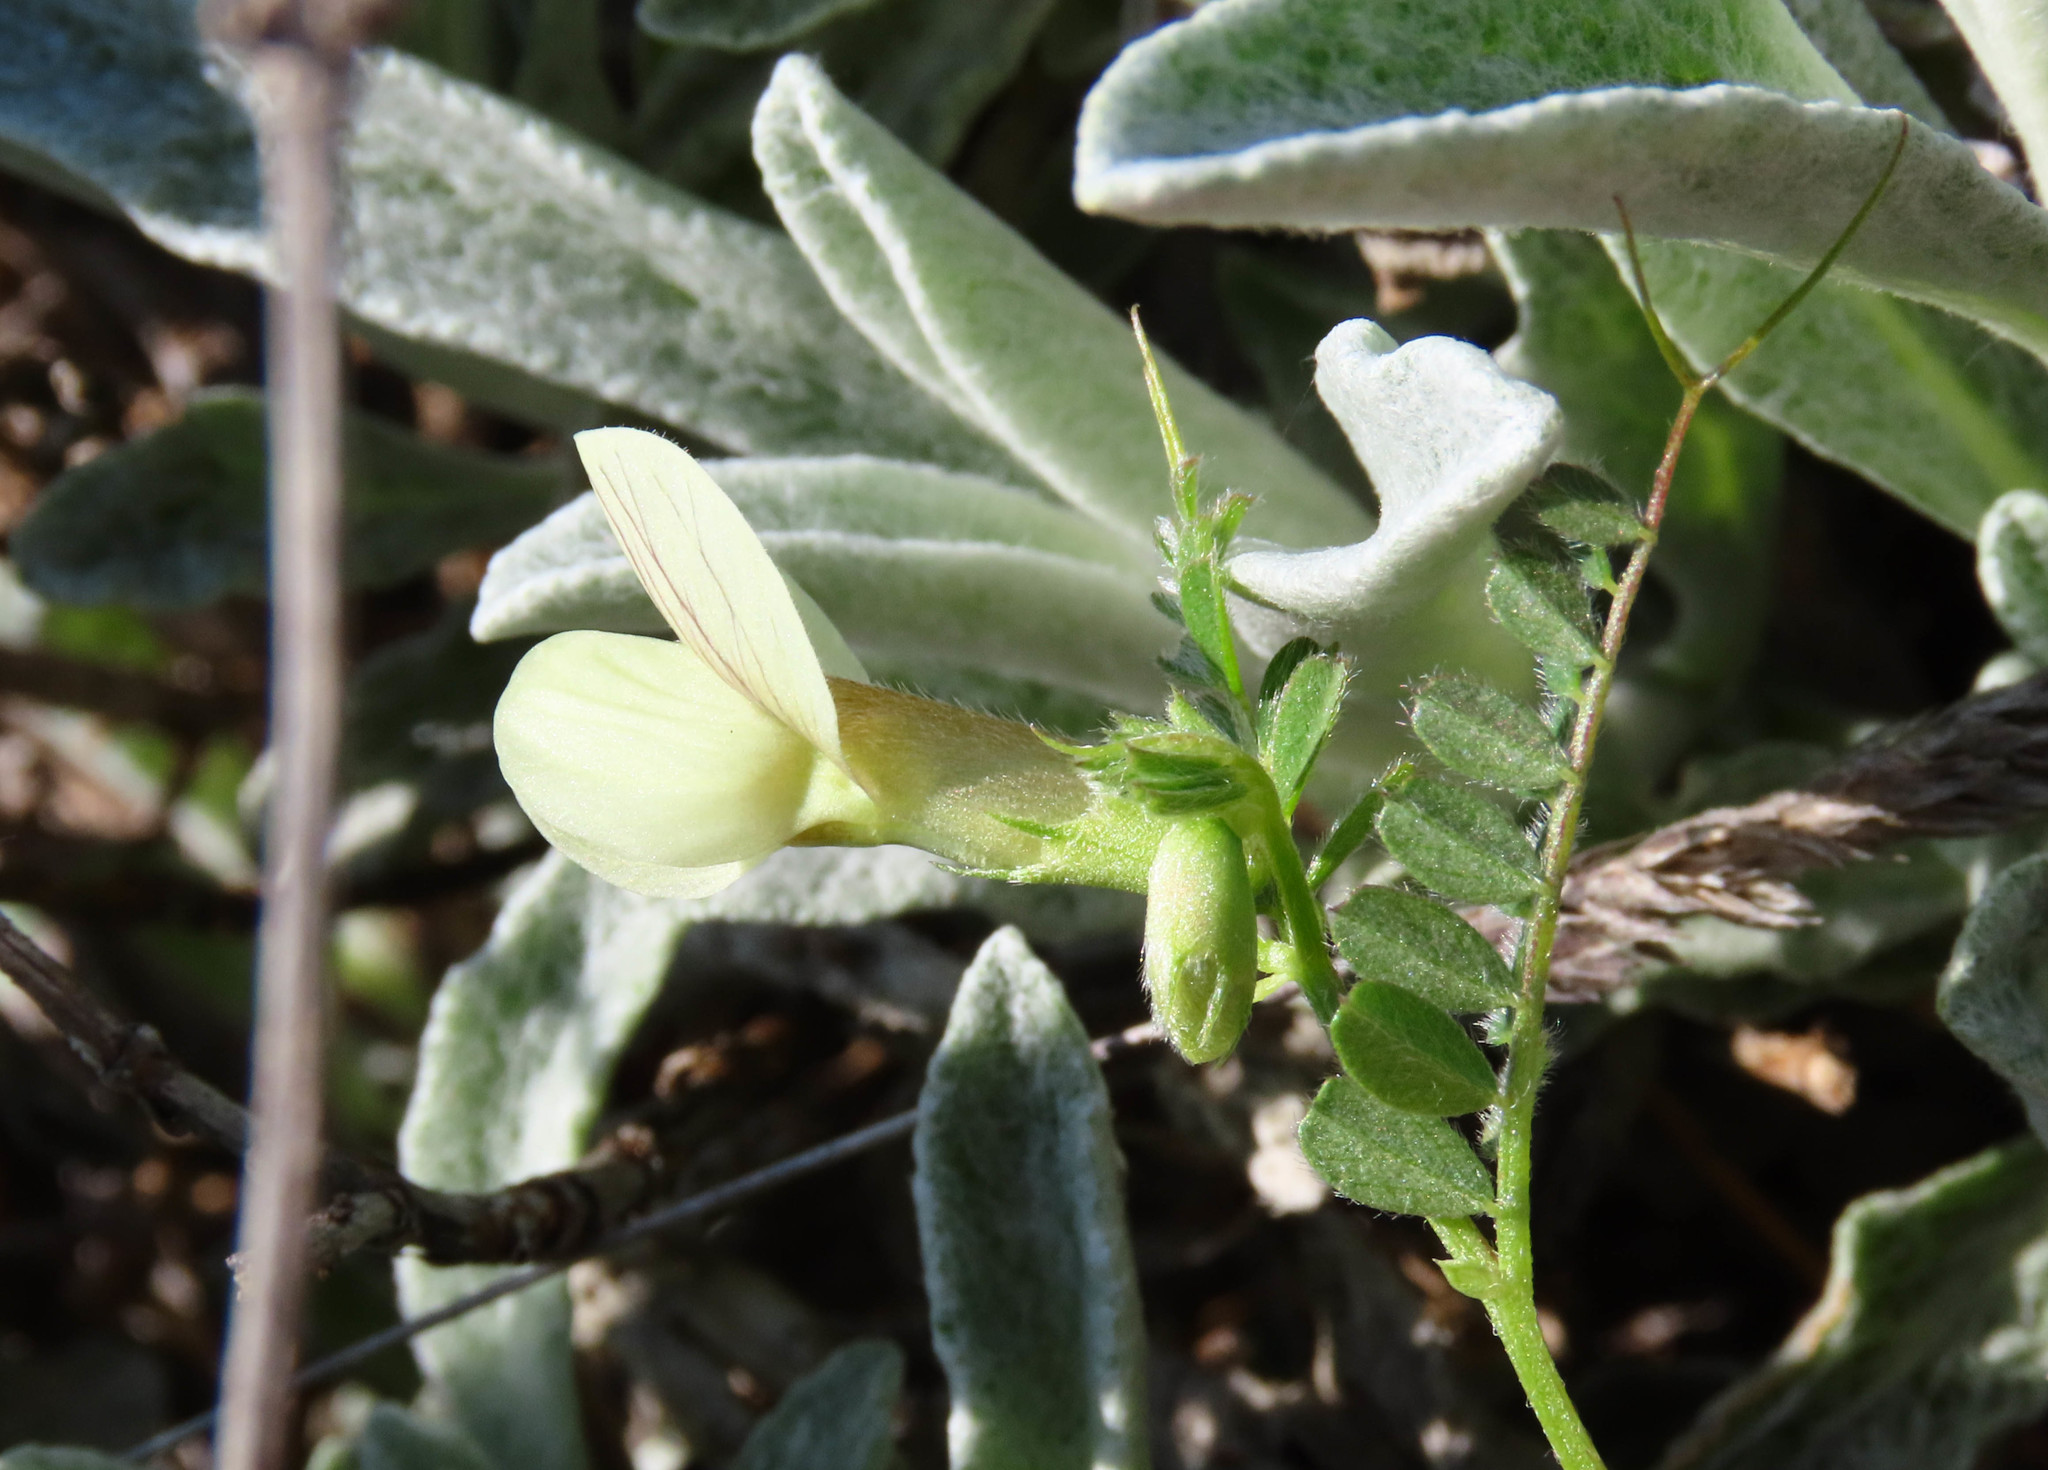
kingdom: Plantae
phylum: Tracheophyta
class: Magnoliopsida
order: Fabales
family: Fabaceae
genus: Vicia
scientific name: Vicia hybrida
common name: Hairy yellow vetch
